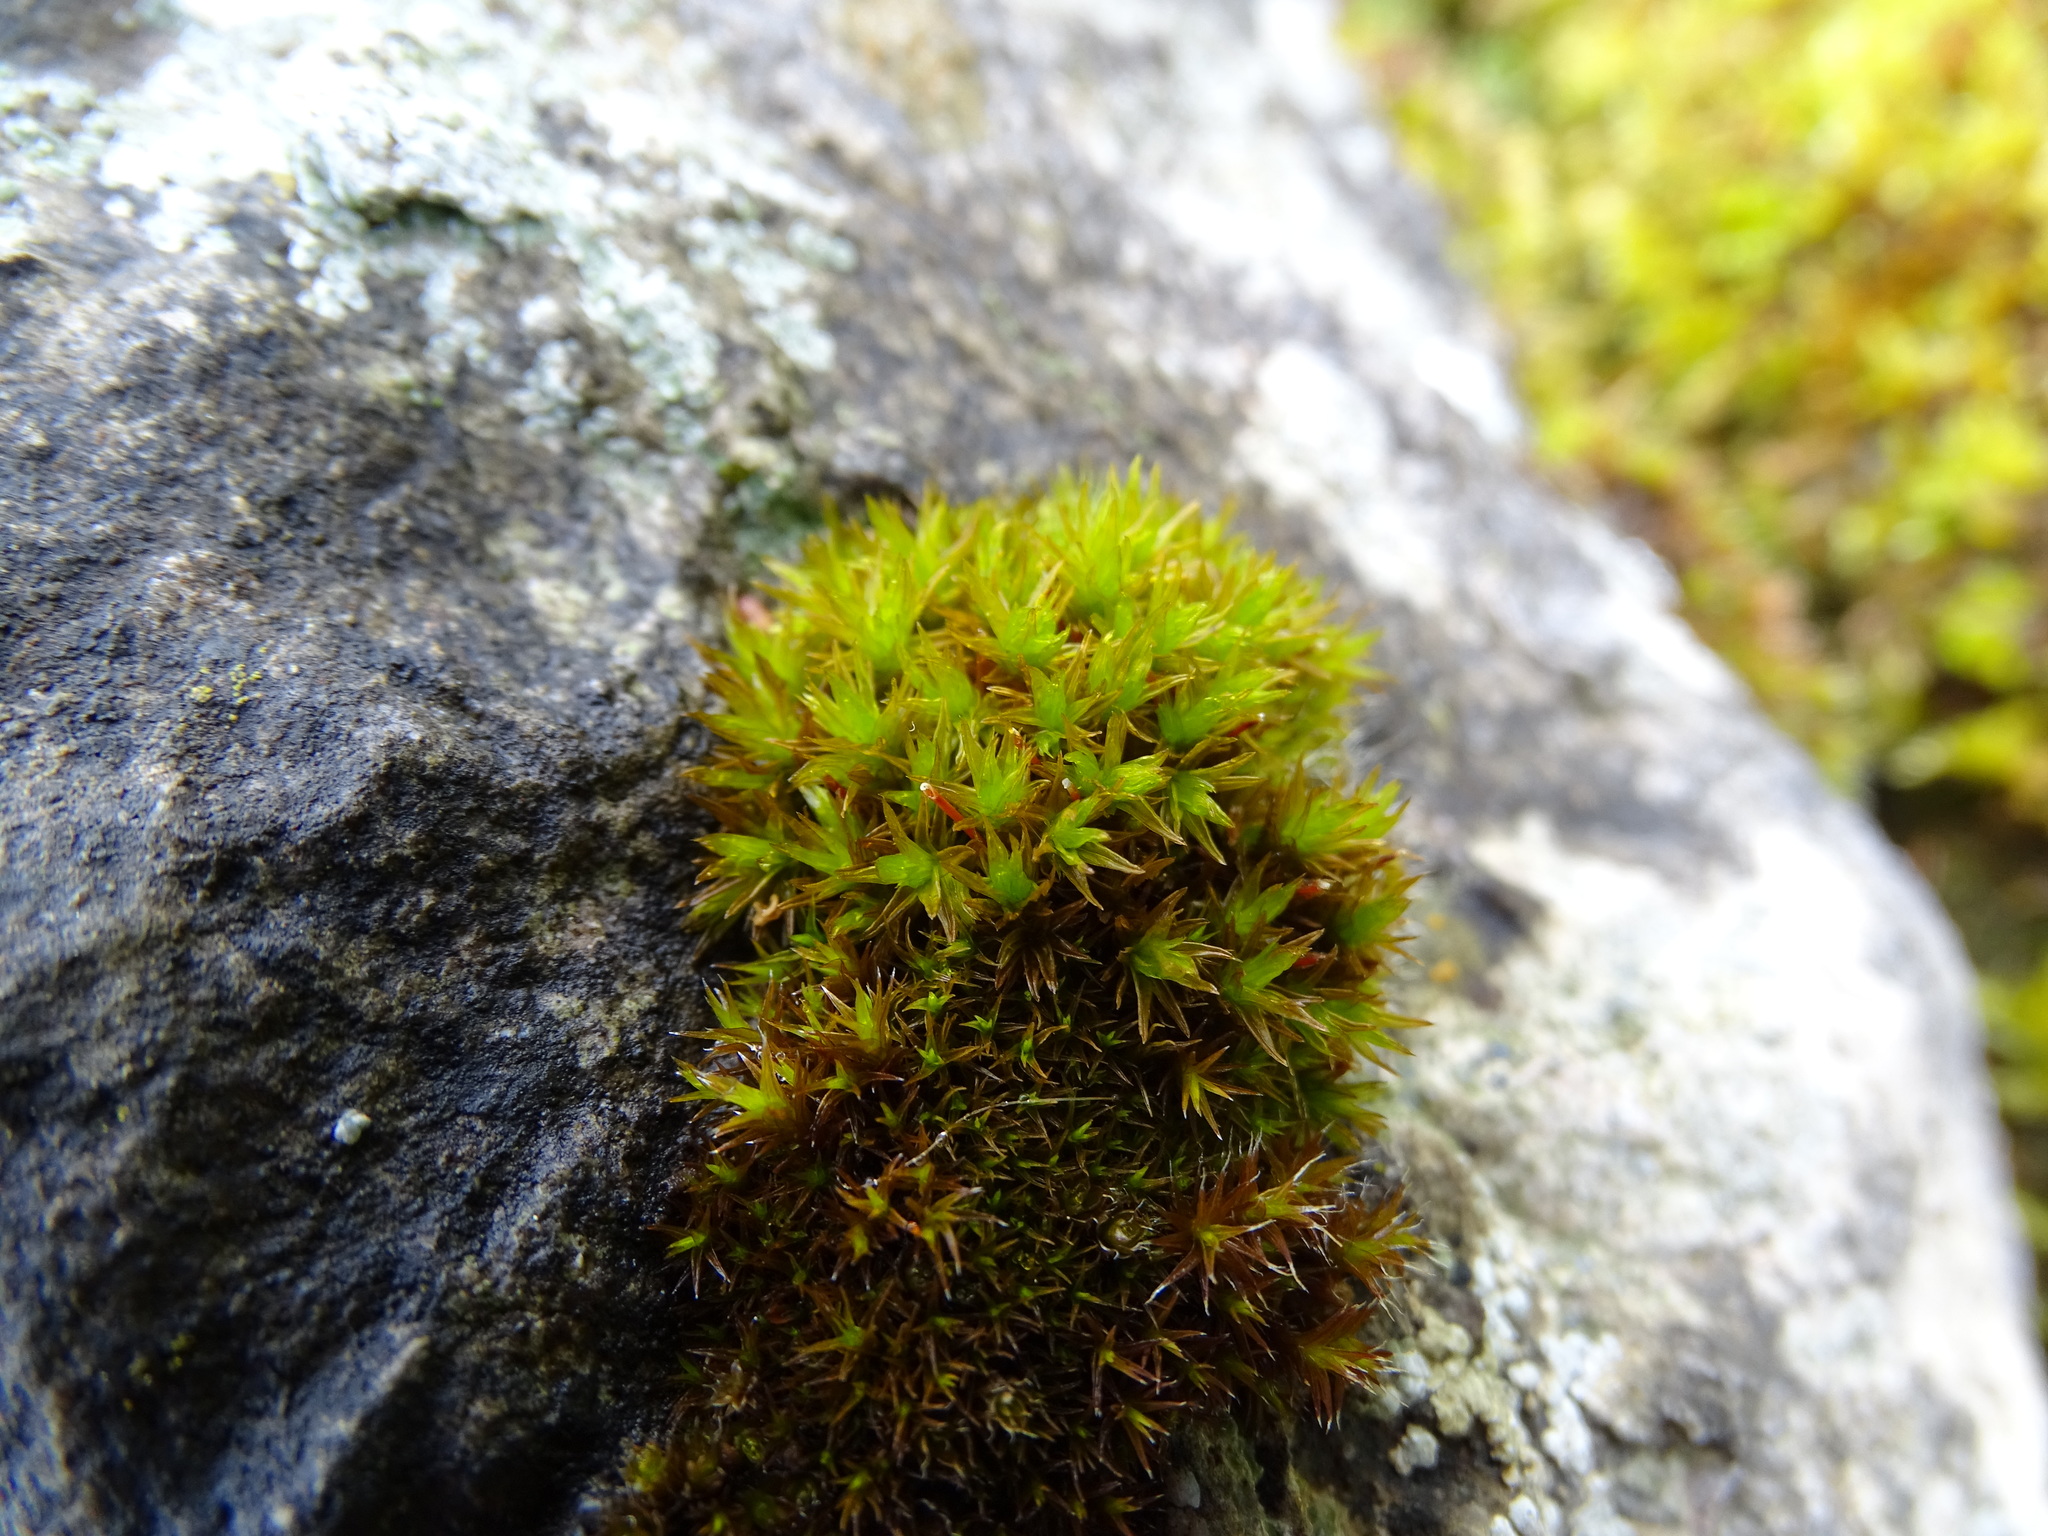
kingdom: Plantae
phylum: Bryophyta
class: Bryopsida
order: Orthotrichales
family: Orthotrichaceae
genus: Orthotrichum
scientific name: Orthotrichum anomalum
